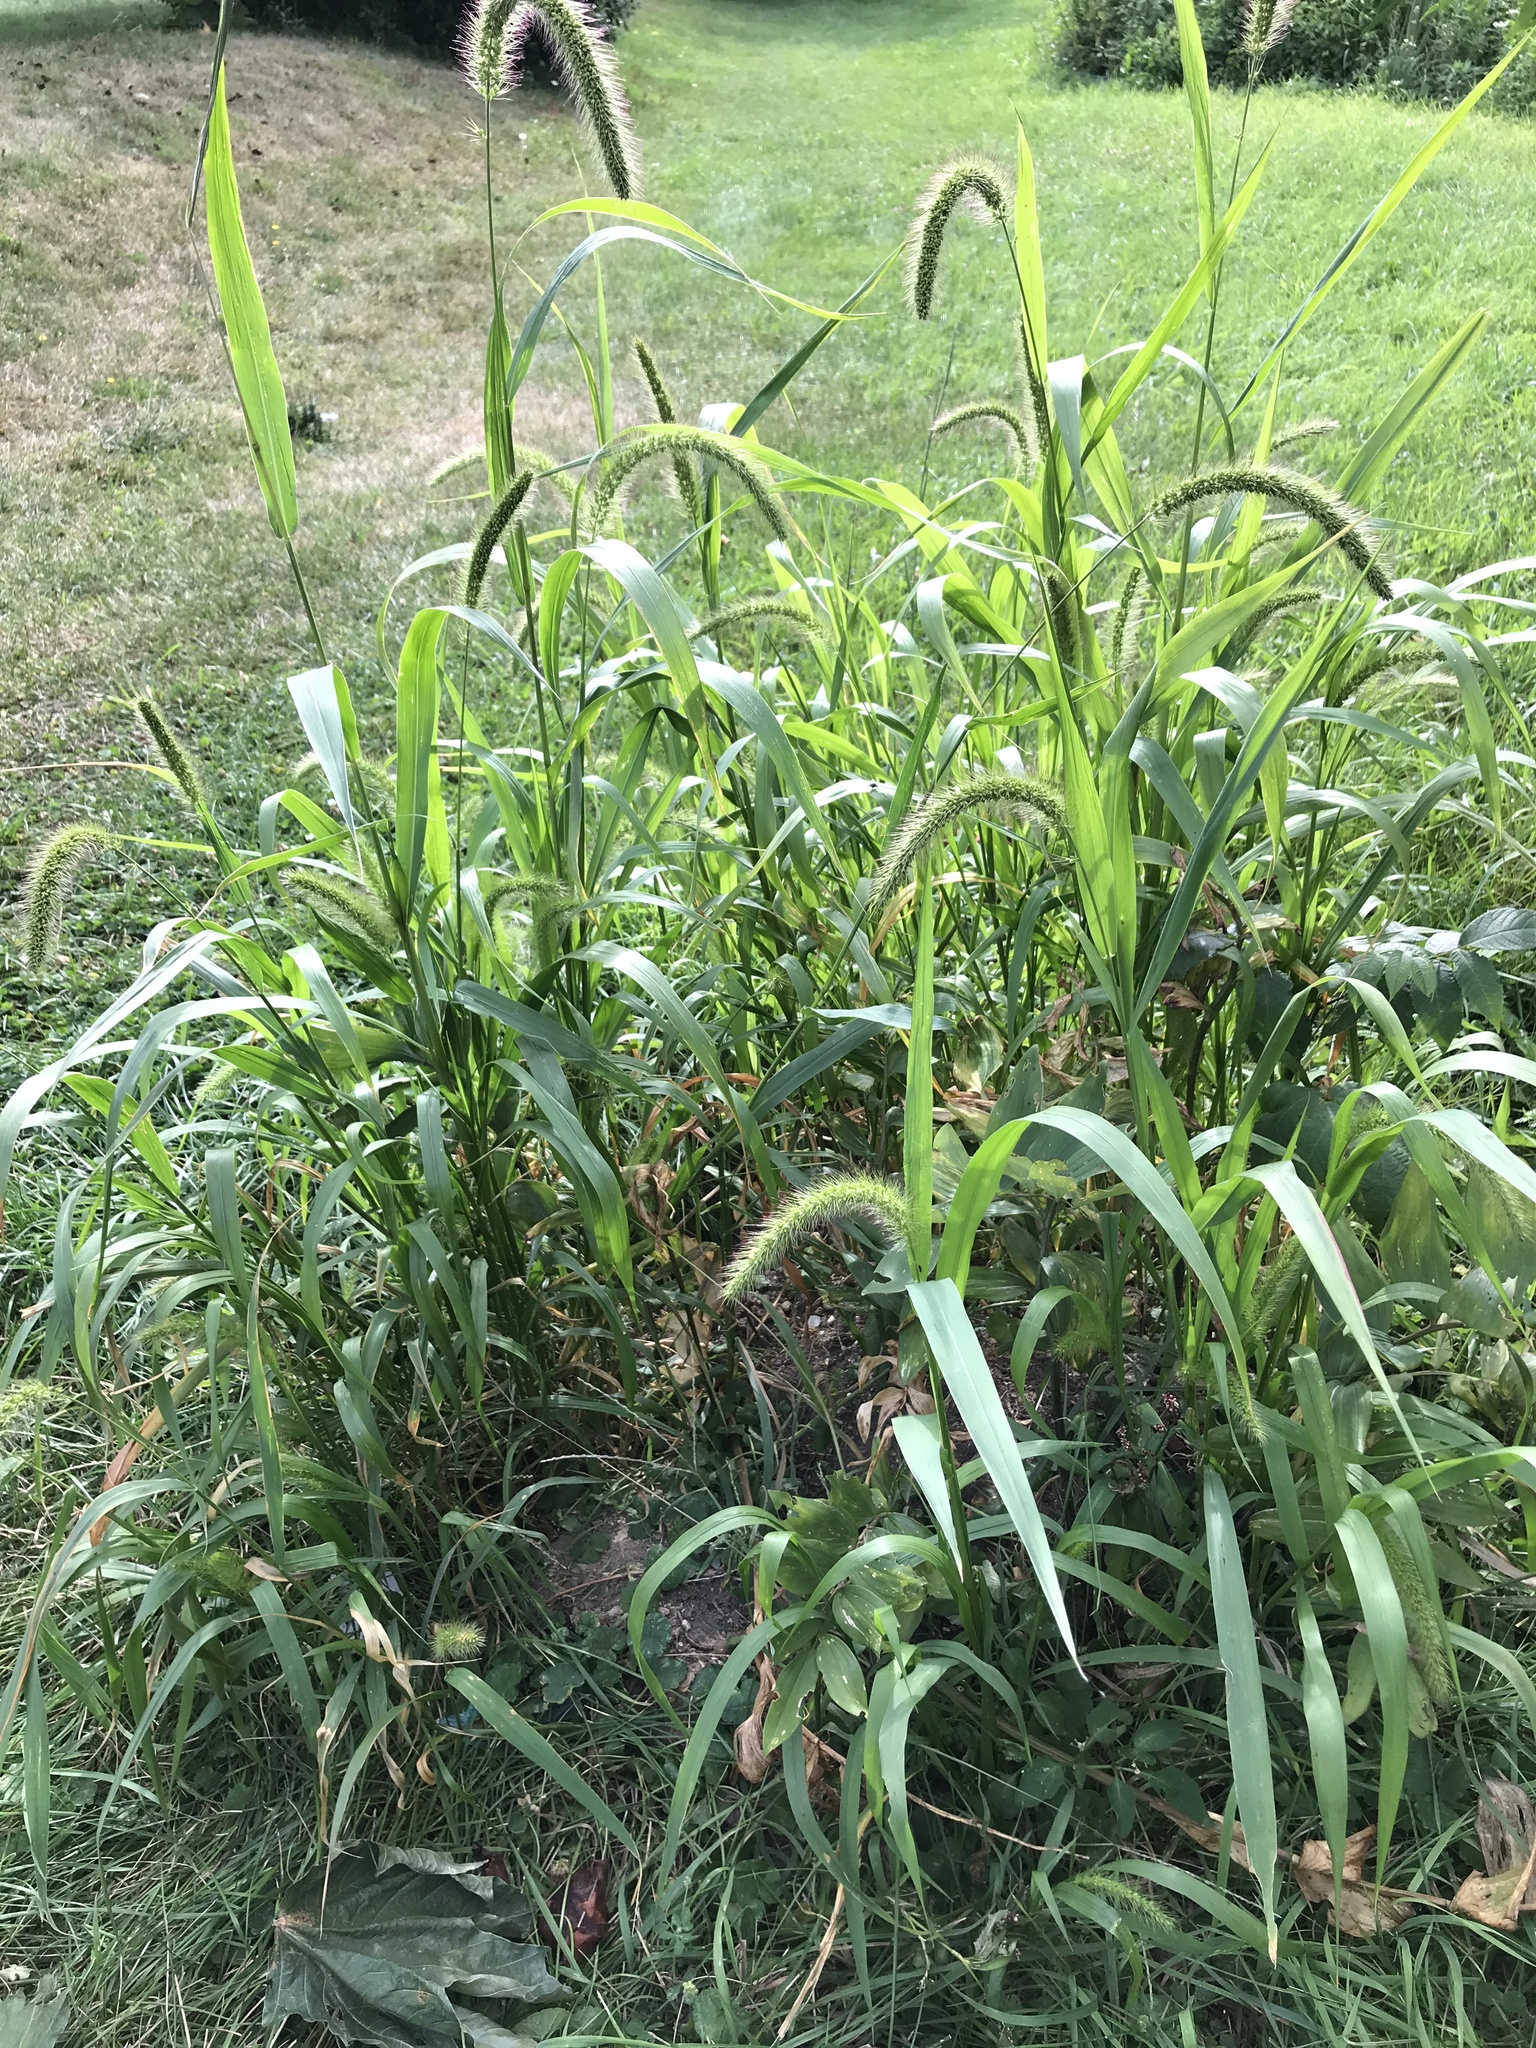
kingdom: Plantae
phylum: Tracheophyta
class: Liliopsida
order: Poales
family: Poaceae
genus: Setaria
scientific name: Setaria faberi
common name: Nodding bristle-grass
